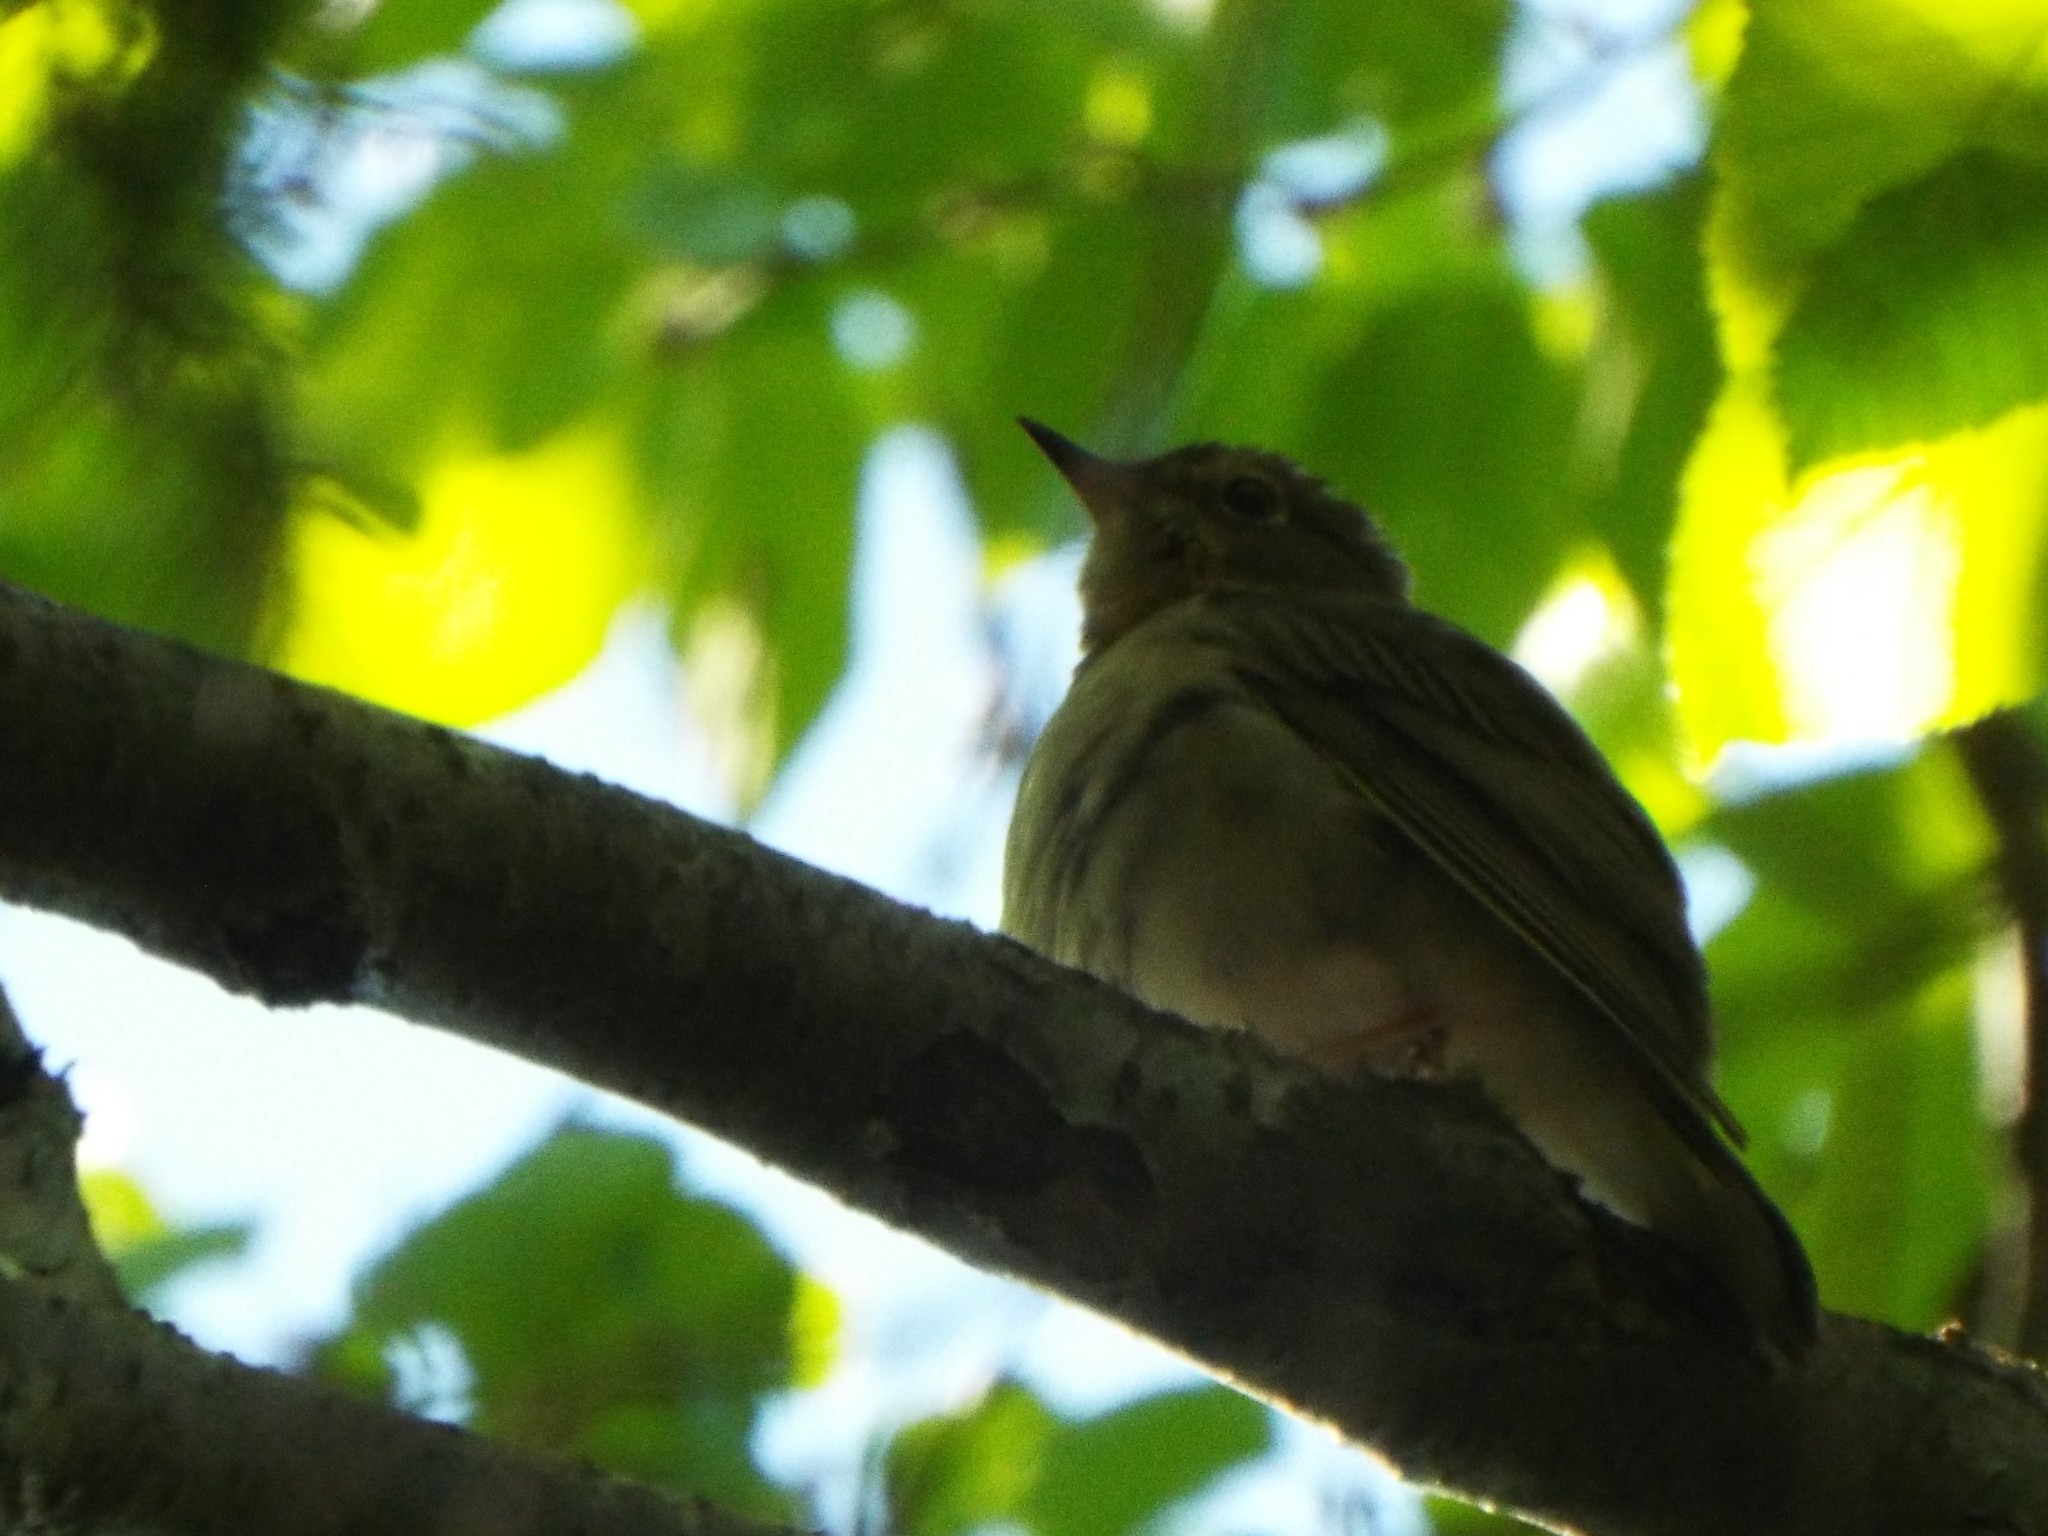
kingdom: Animalia
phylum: Chordata
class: Aves
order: Passeriformes
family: Turdidae
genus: Catharus
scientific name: Catharus ustulatus
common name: Swainson's thrush
